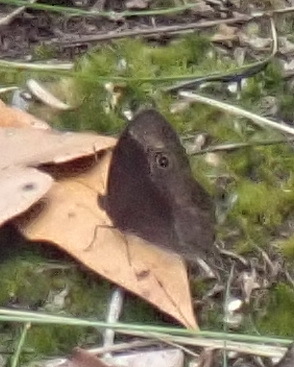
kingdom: Animalia
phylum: Arthropoda
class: Insecta
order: Lepidoptera
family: Nymphalidae
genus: Mycalesis
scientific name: Mycalesis rhacotis
